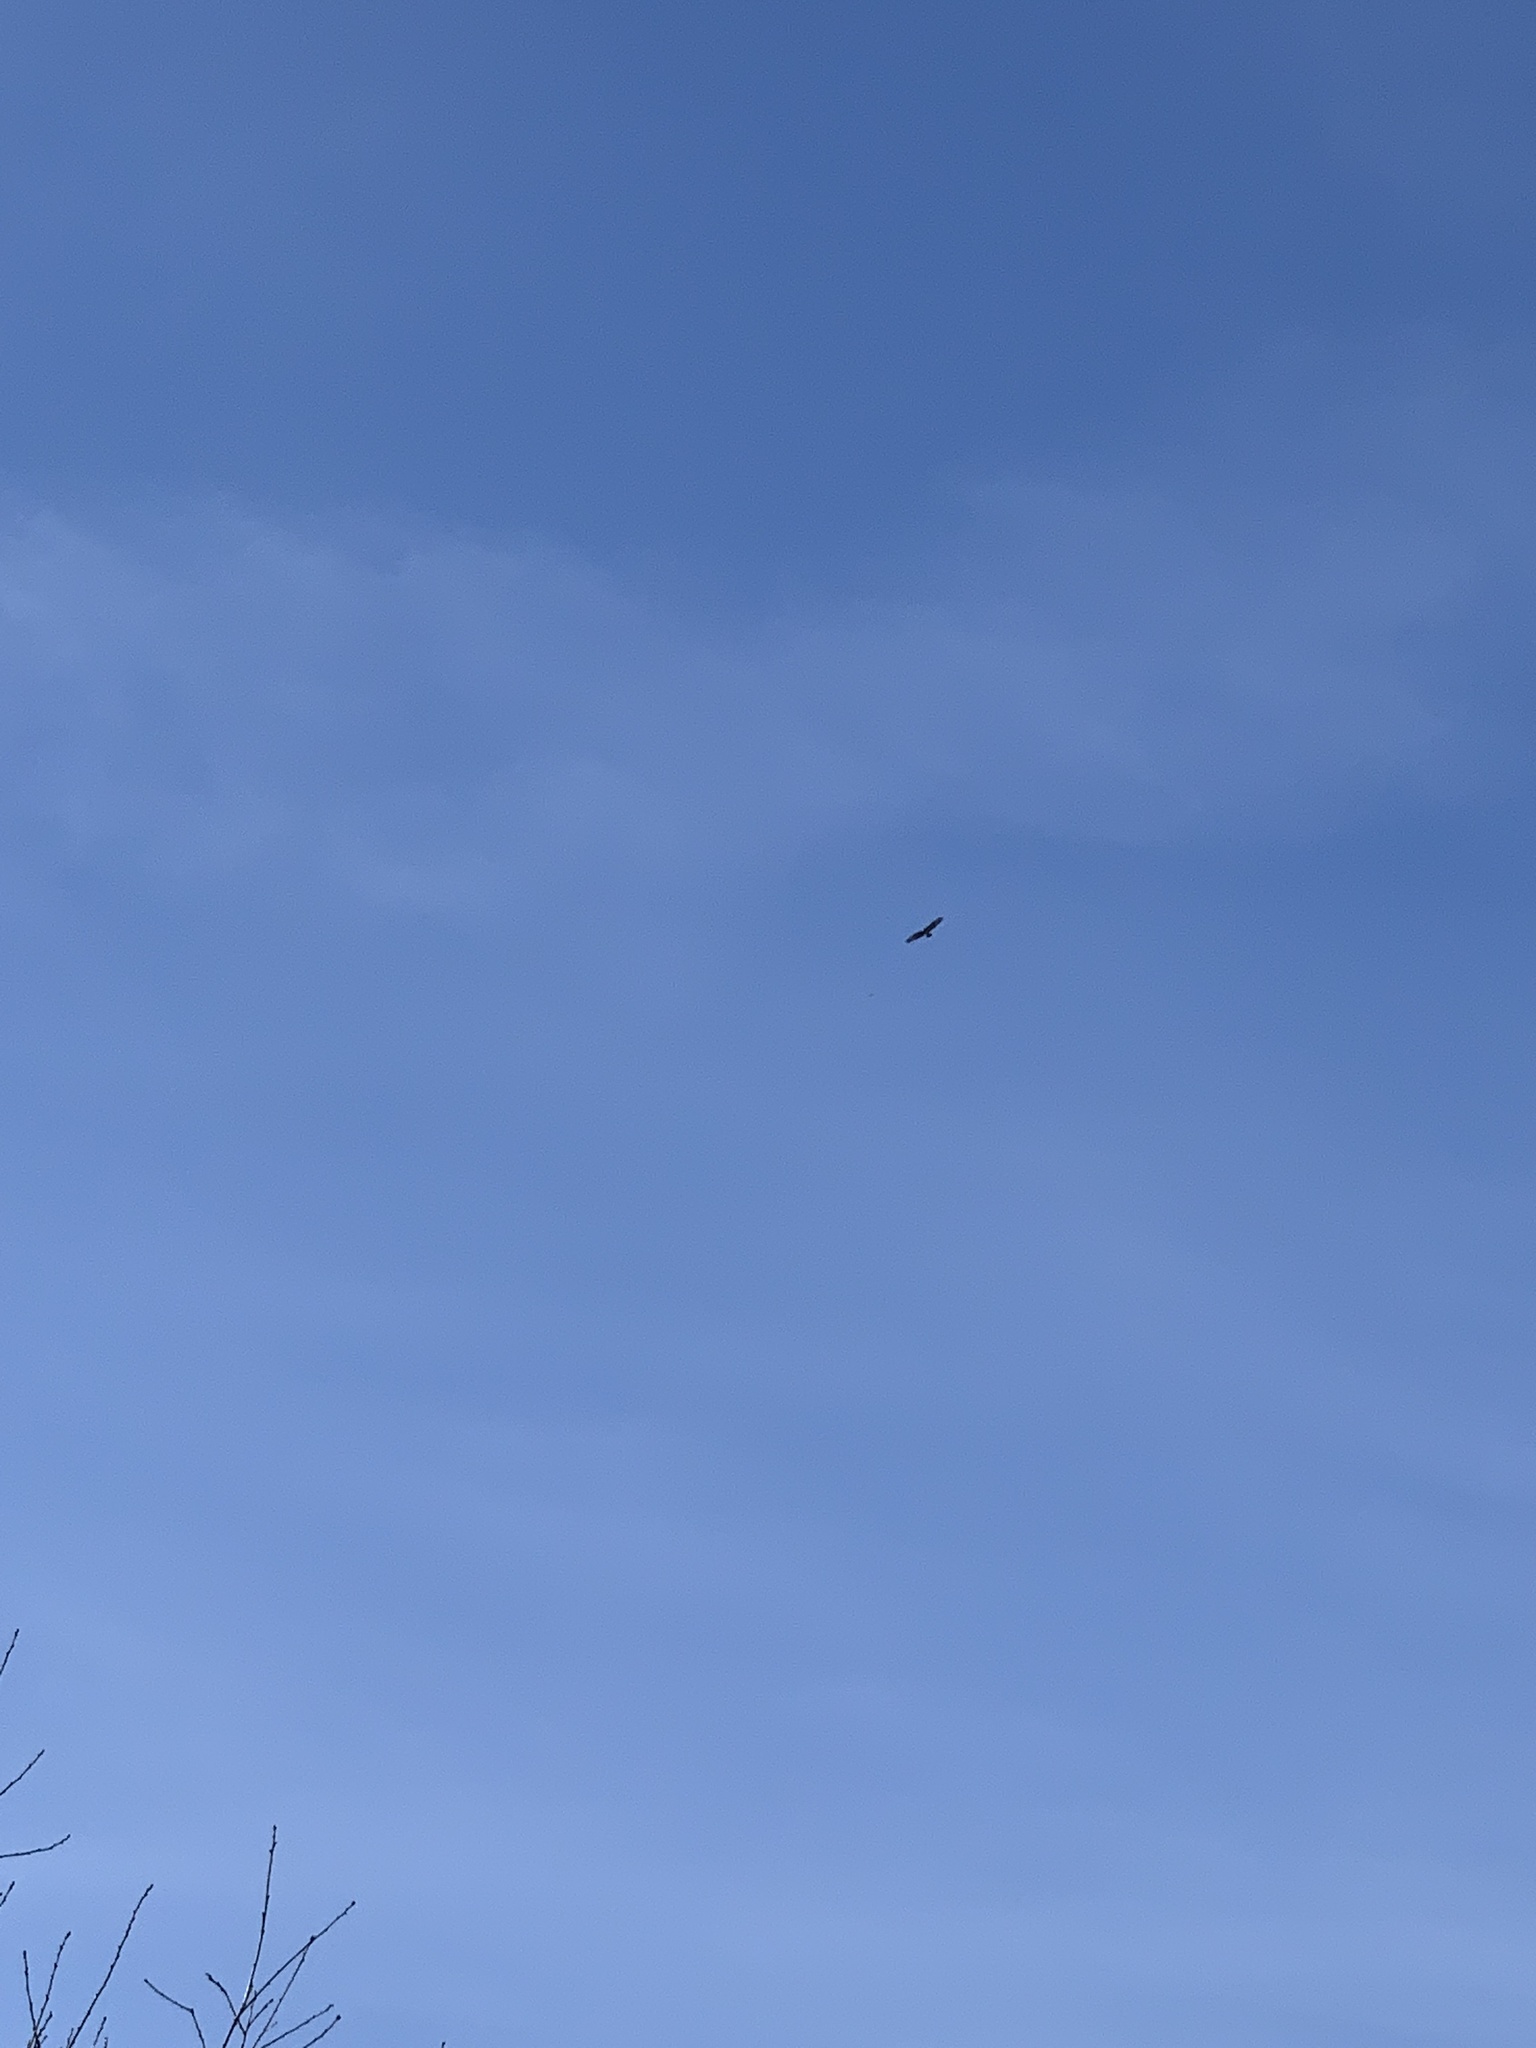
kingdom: Animalia
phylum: Chordata
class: Aves
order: Accipitriformes
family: Accipitridae
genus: Buteo
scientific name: Buteo buteo
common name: Common buzzard
